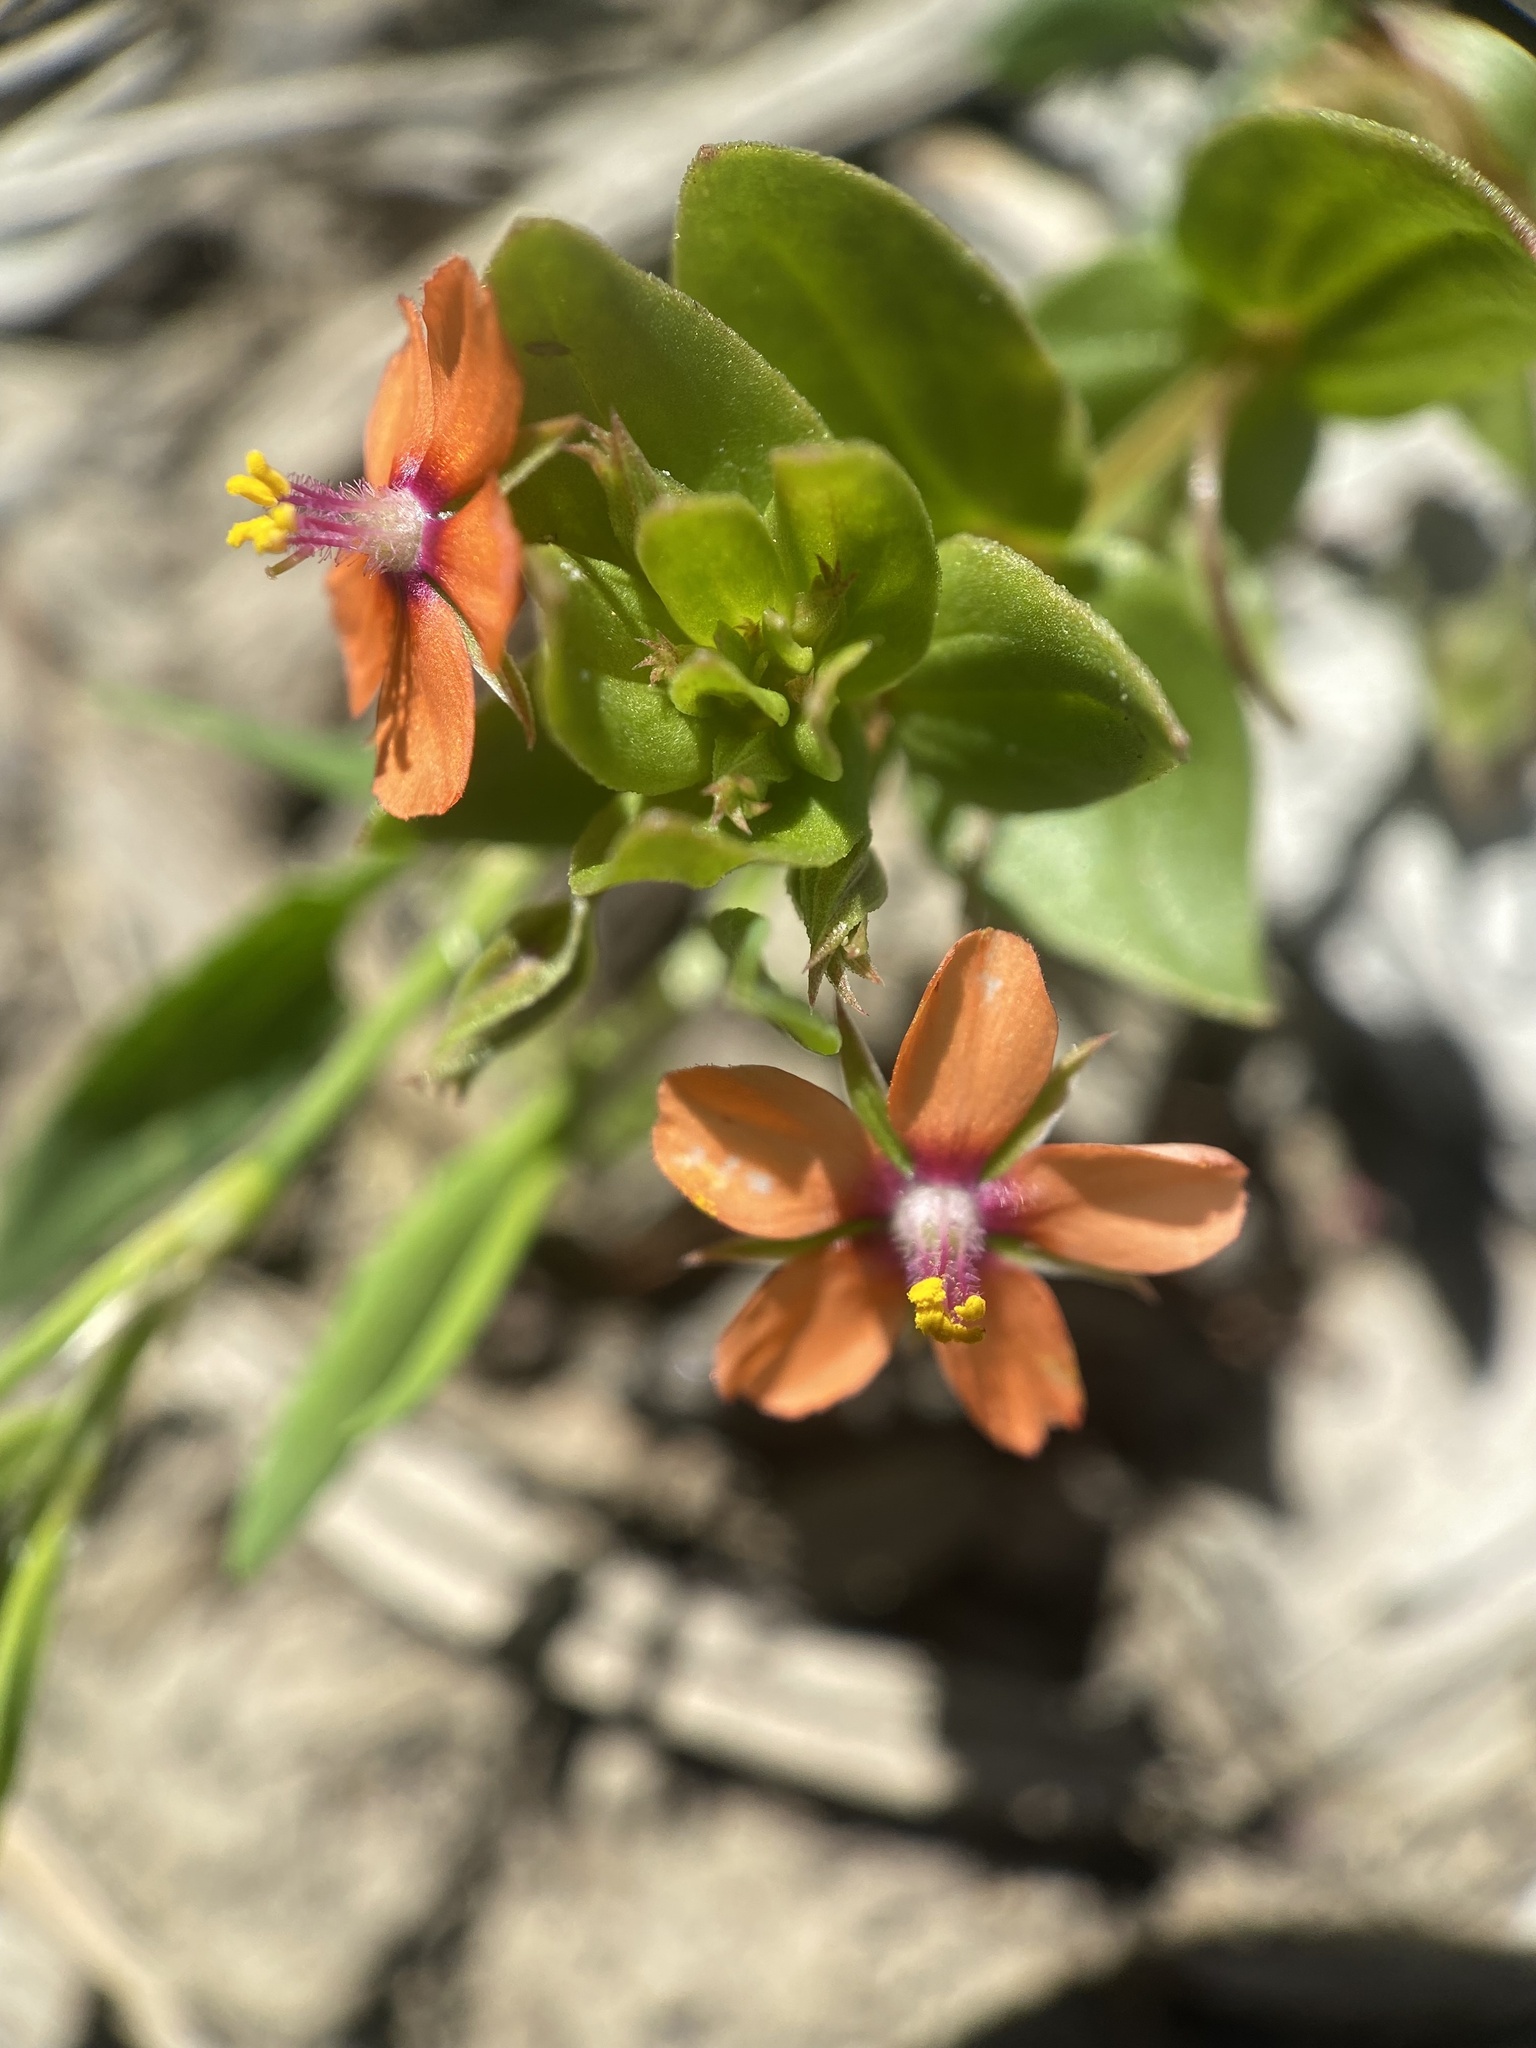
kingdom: Plantae
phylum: Tracheophyta
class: Magnoliopsida
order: Ericales
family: Primulaceae
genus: Lysimachia
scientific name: Lysimachia arvensis
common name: Scarlet pimpernel
